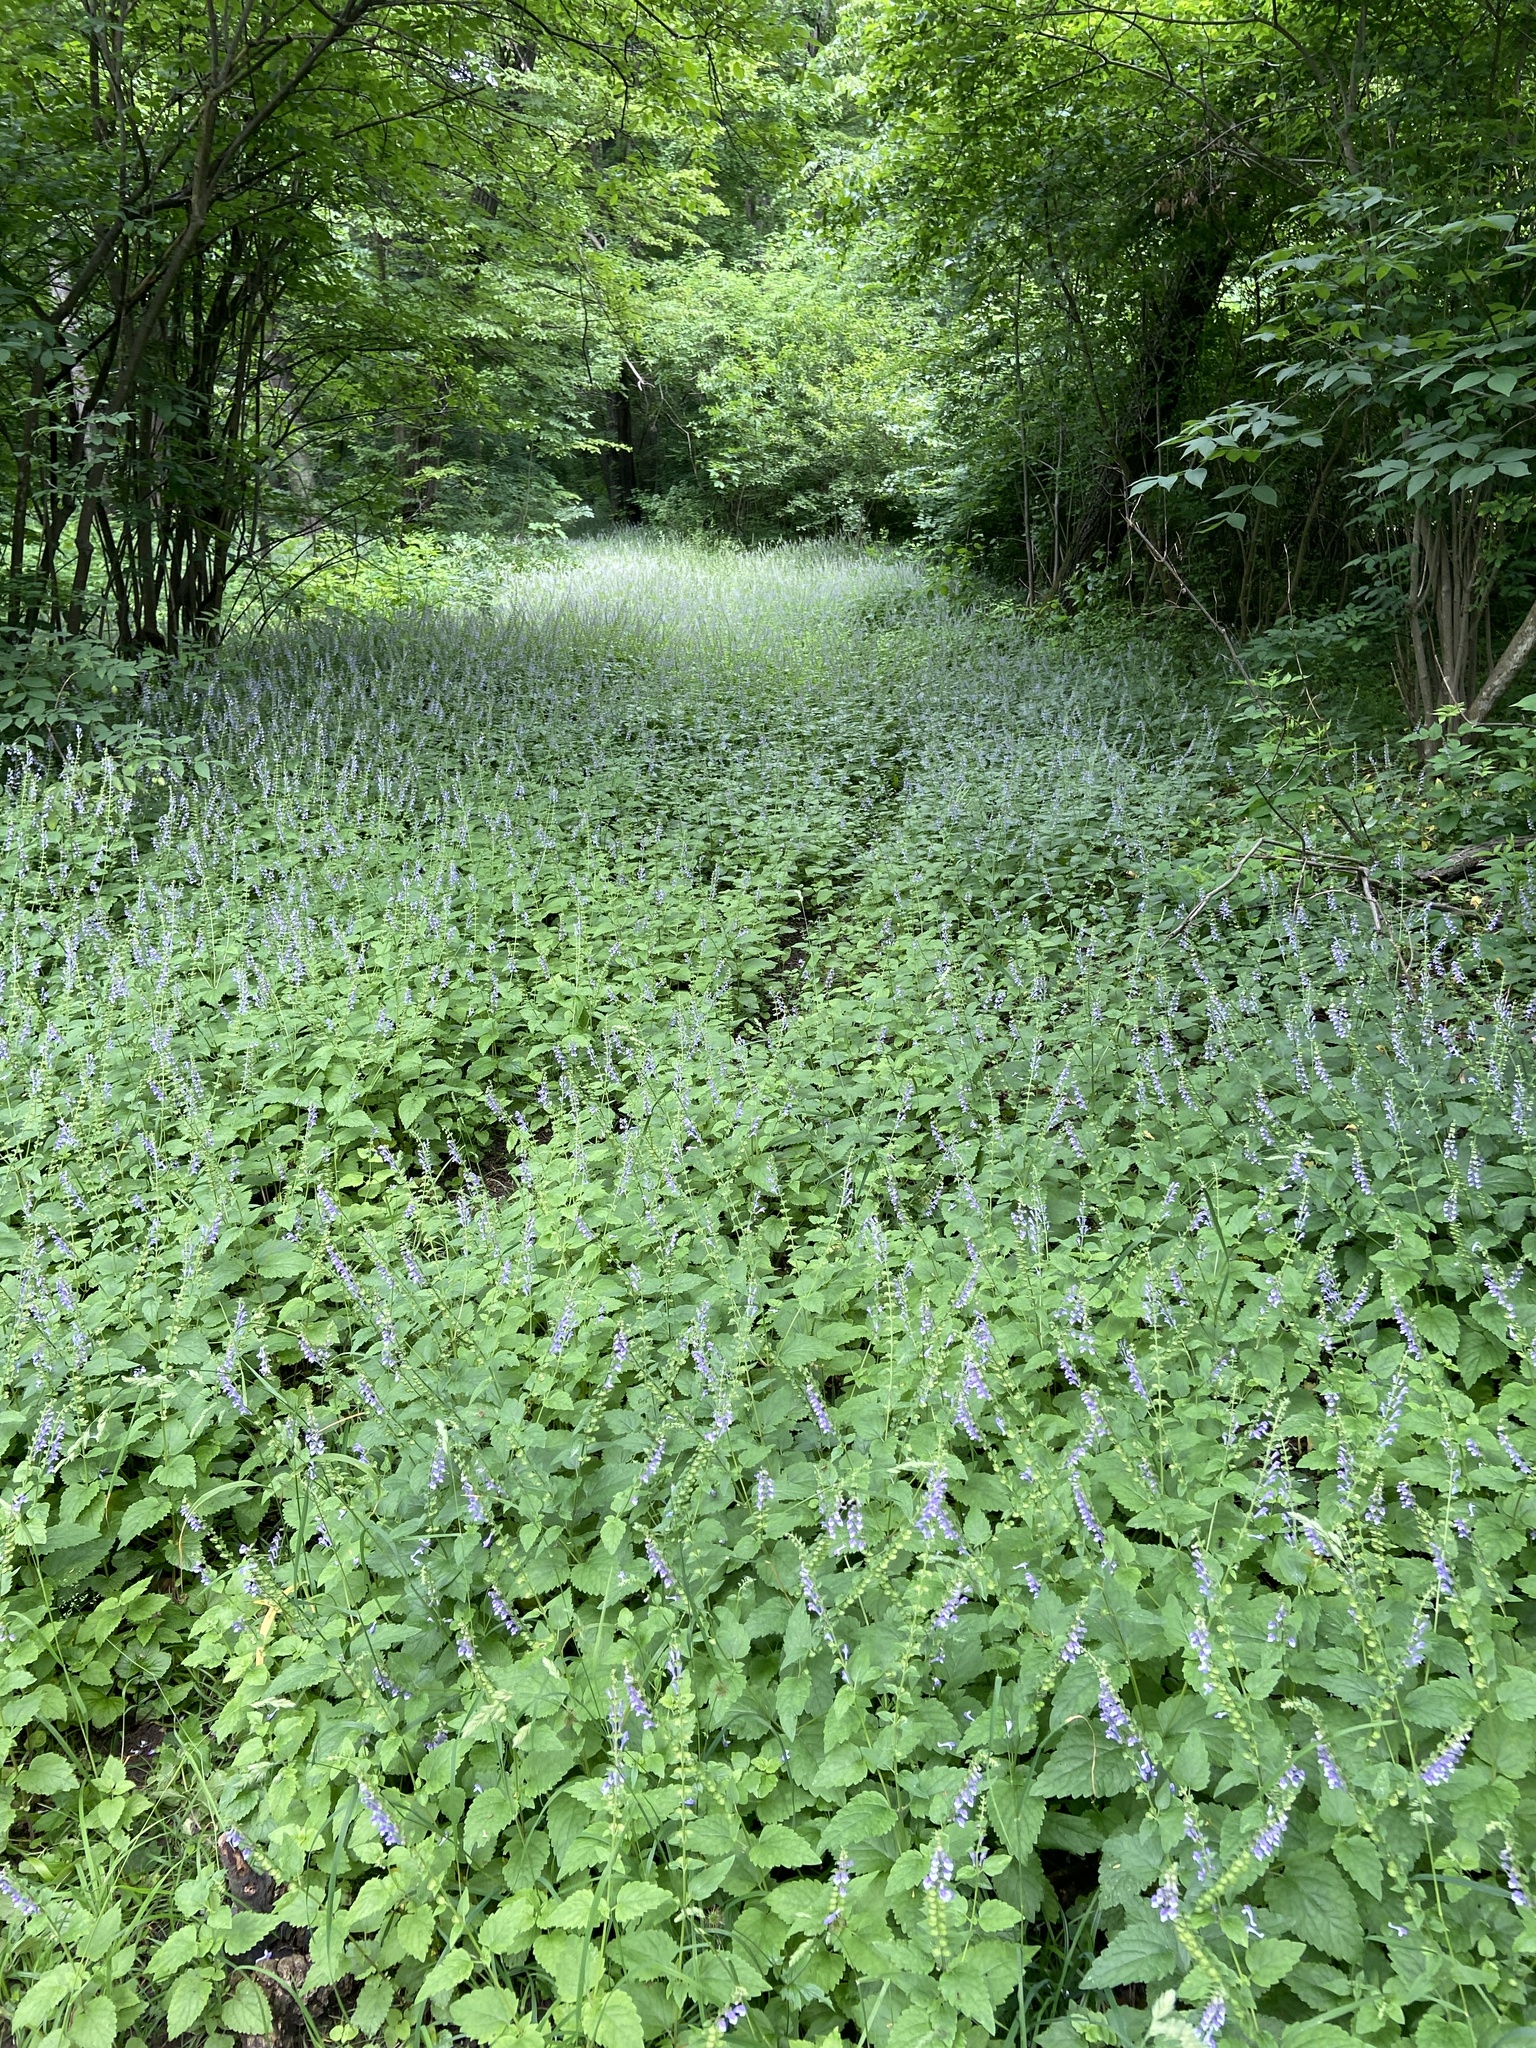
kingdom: Plantae
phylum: Tracheophyta
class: Magnoliopsida
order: Lamiales
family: Lamiaceae
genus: Scutellaria
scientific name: Scutellaria altissima
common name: Somerset skullcap
